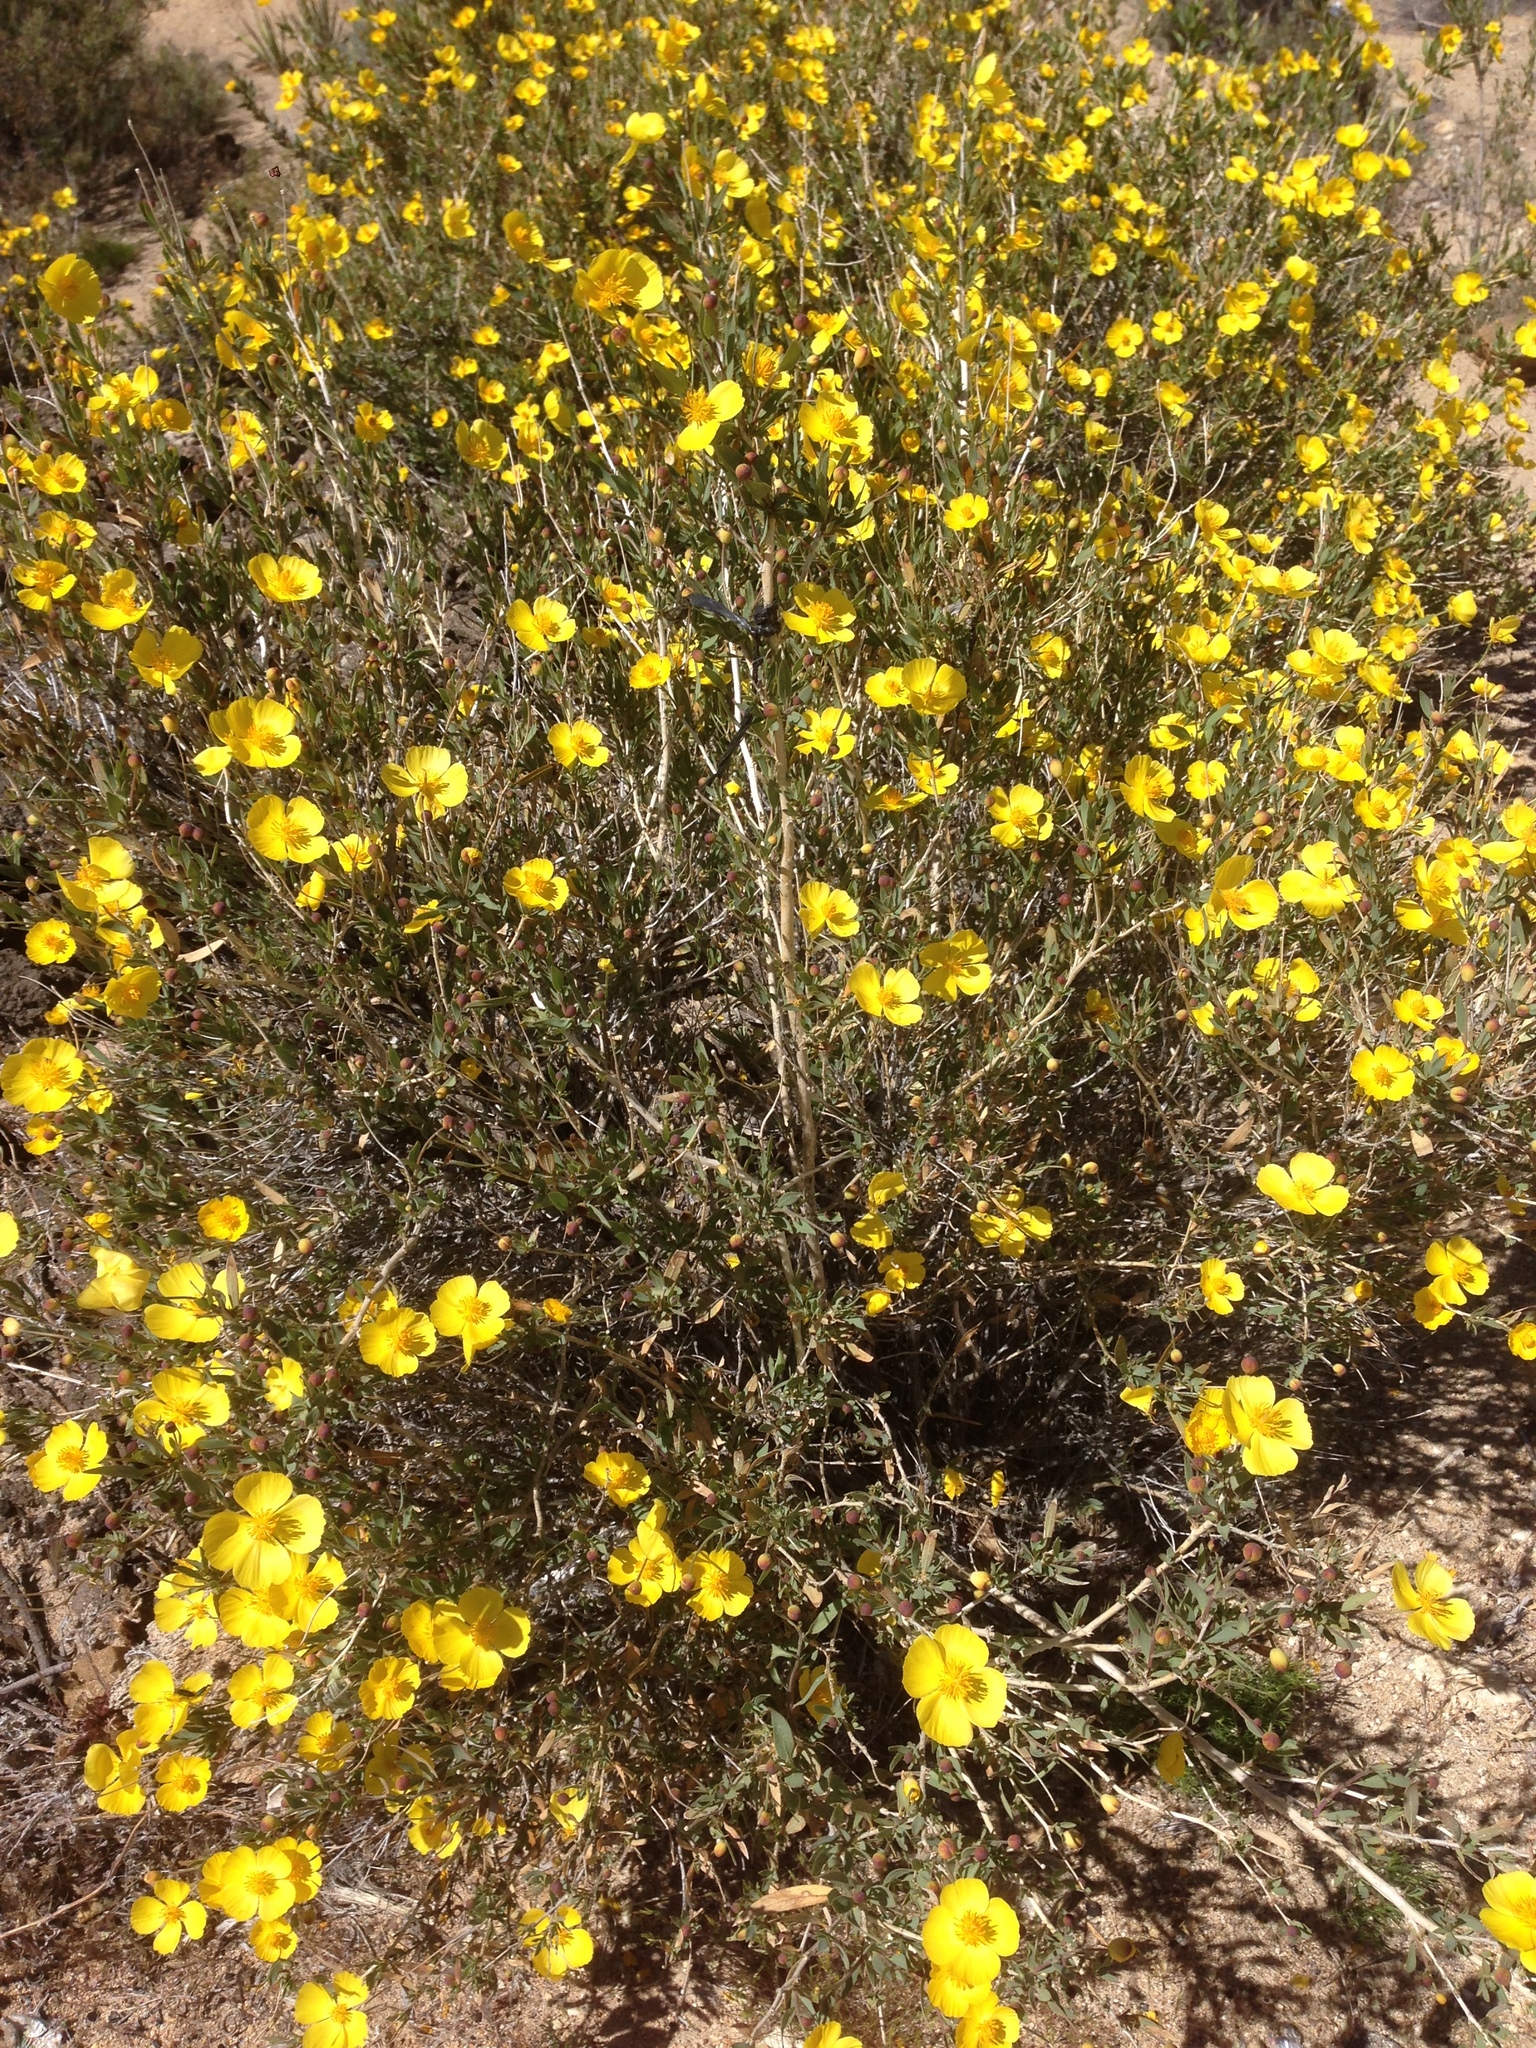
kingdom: Plantae
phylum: Tracheophyta
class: Magnoliopsida
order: Ranunculales
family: Papaveraceae
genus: Dendromecon
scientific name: Dendromecon rigida
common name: Tree poppy
